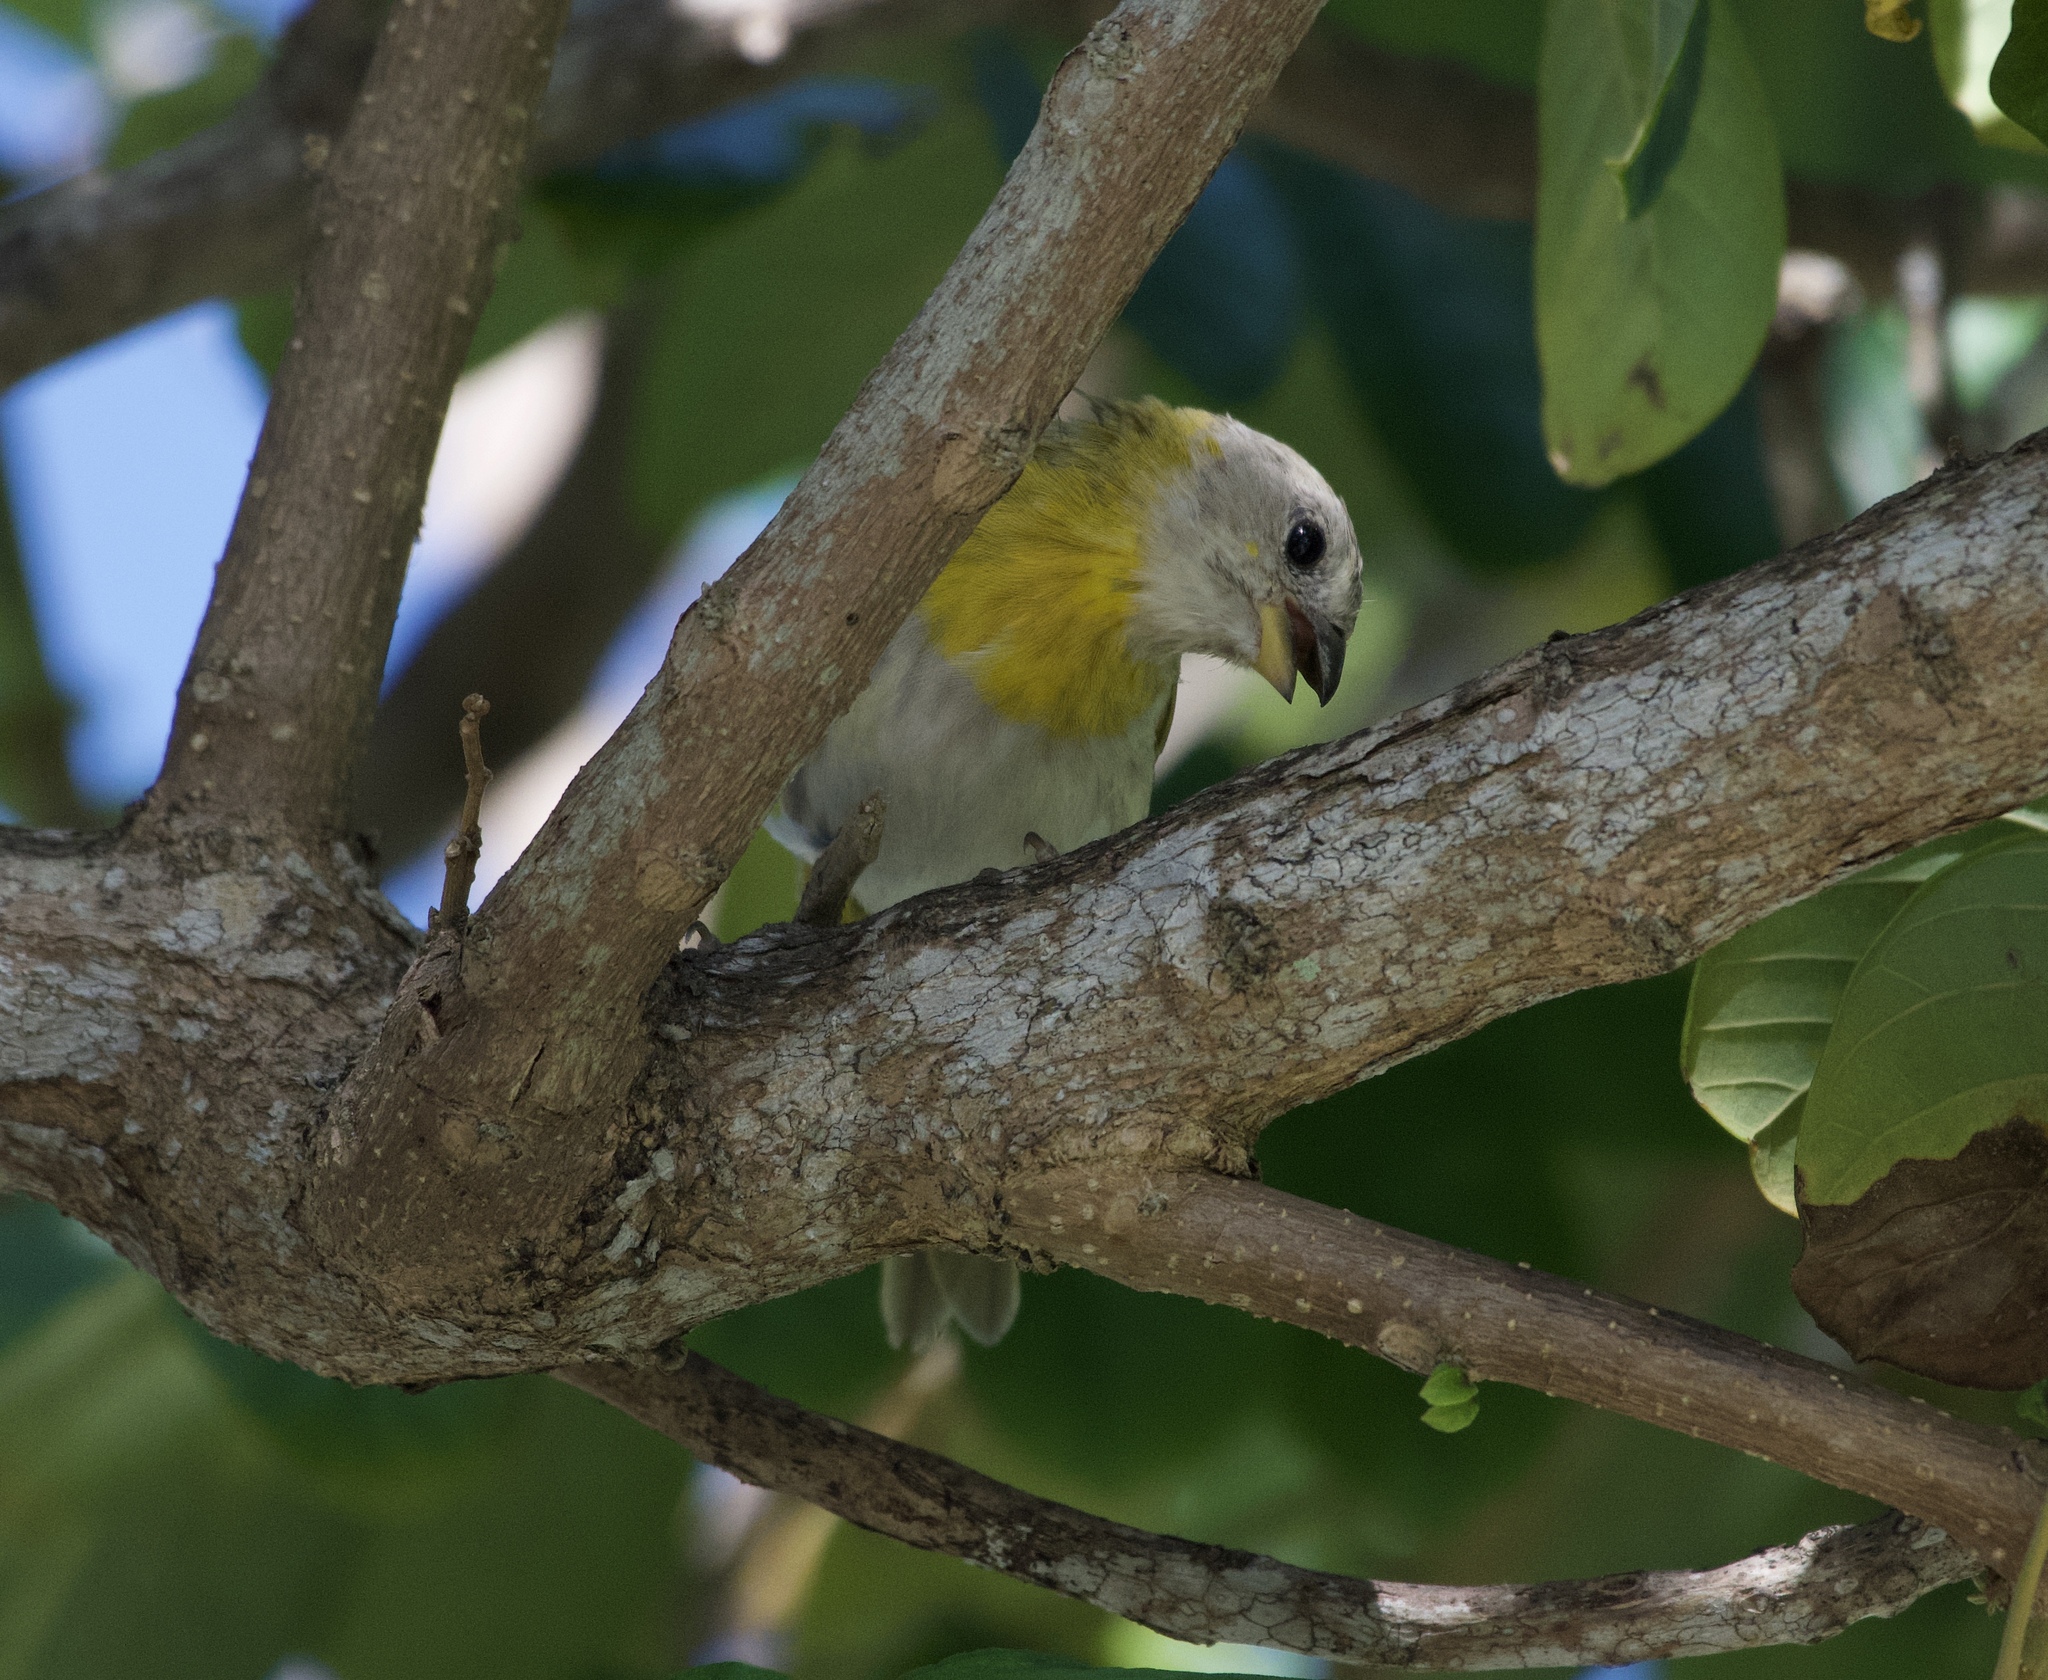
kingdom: Animalia
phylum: Chordata
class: Aves
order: Passeriformes
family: Thraupidae
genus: Sicalis
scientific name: Sicalis flaveola
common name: Saffron finch
